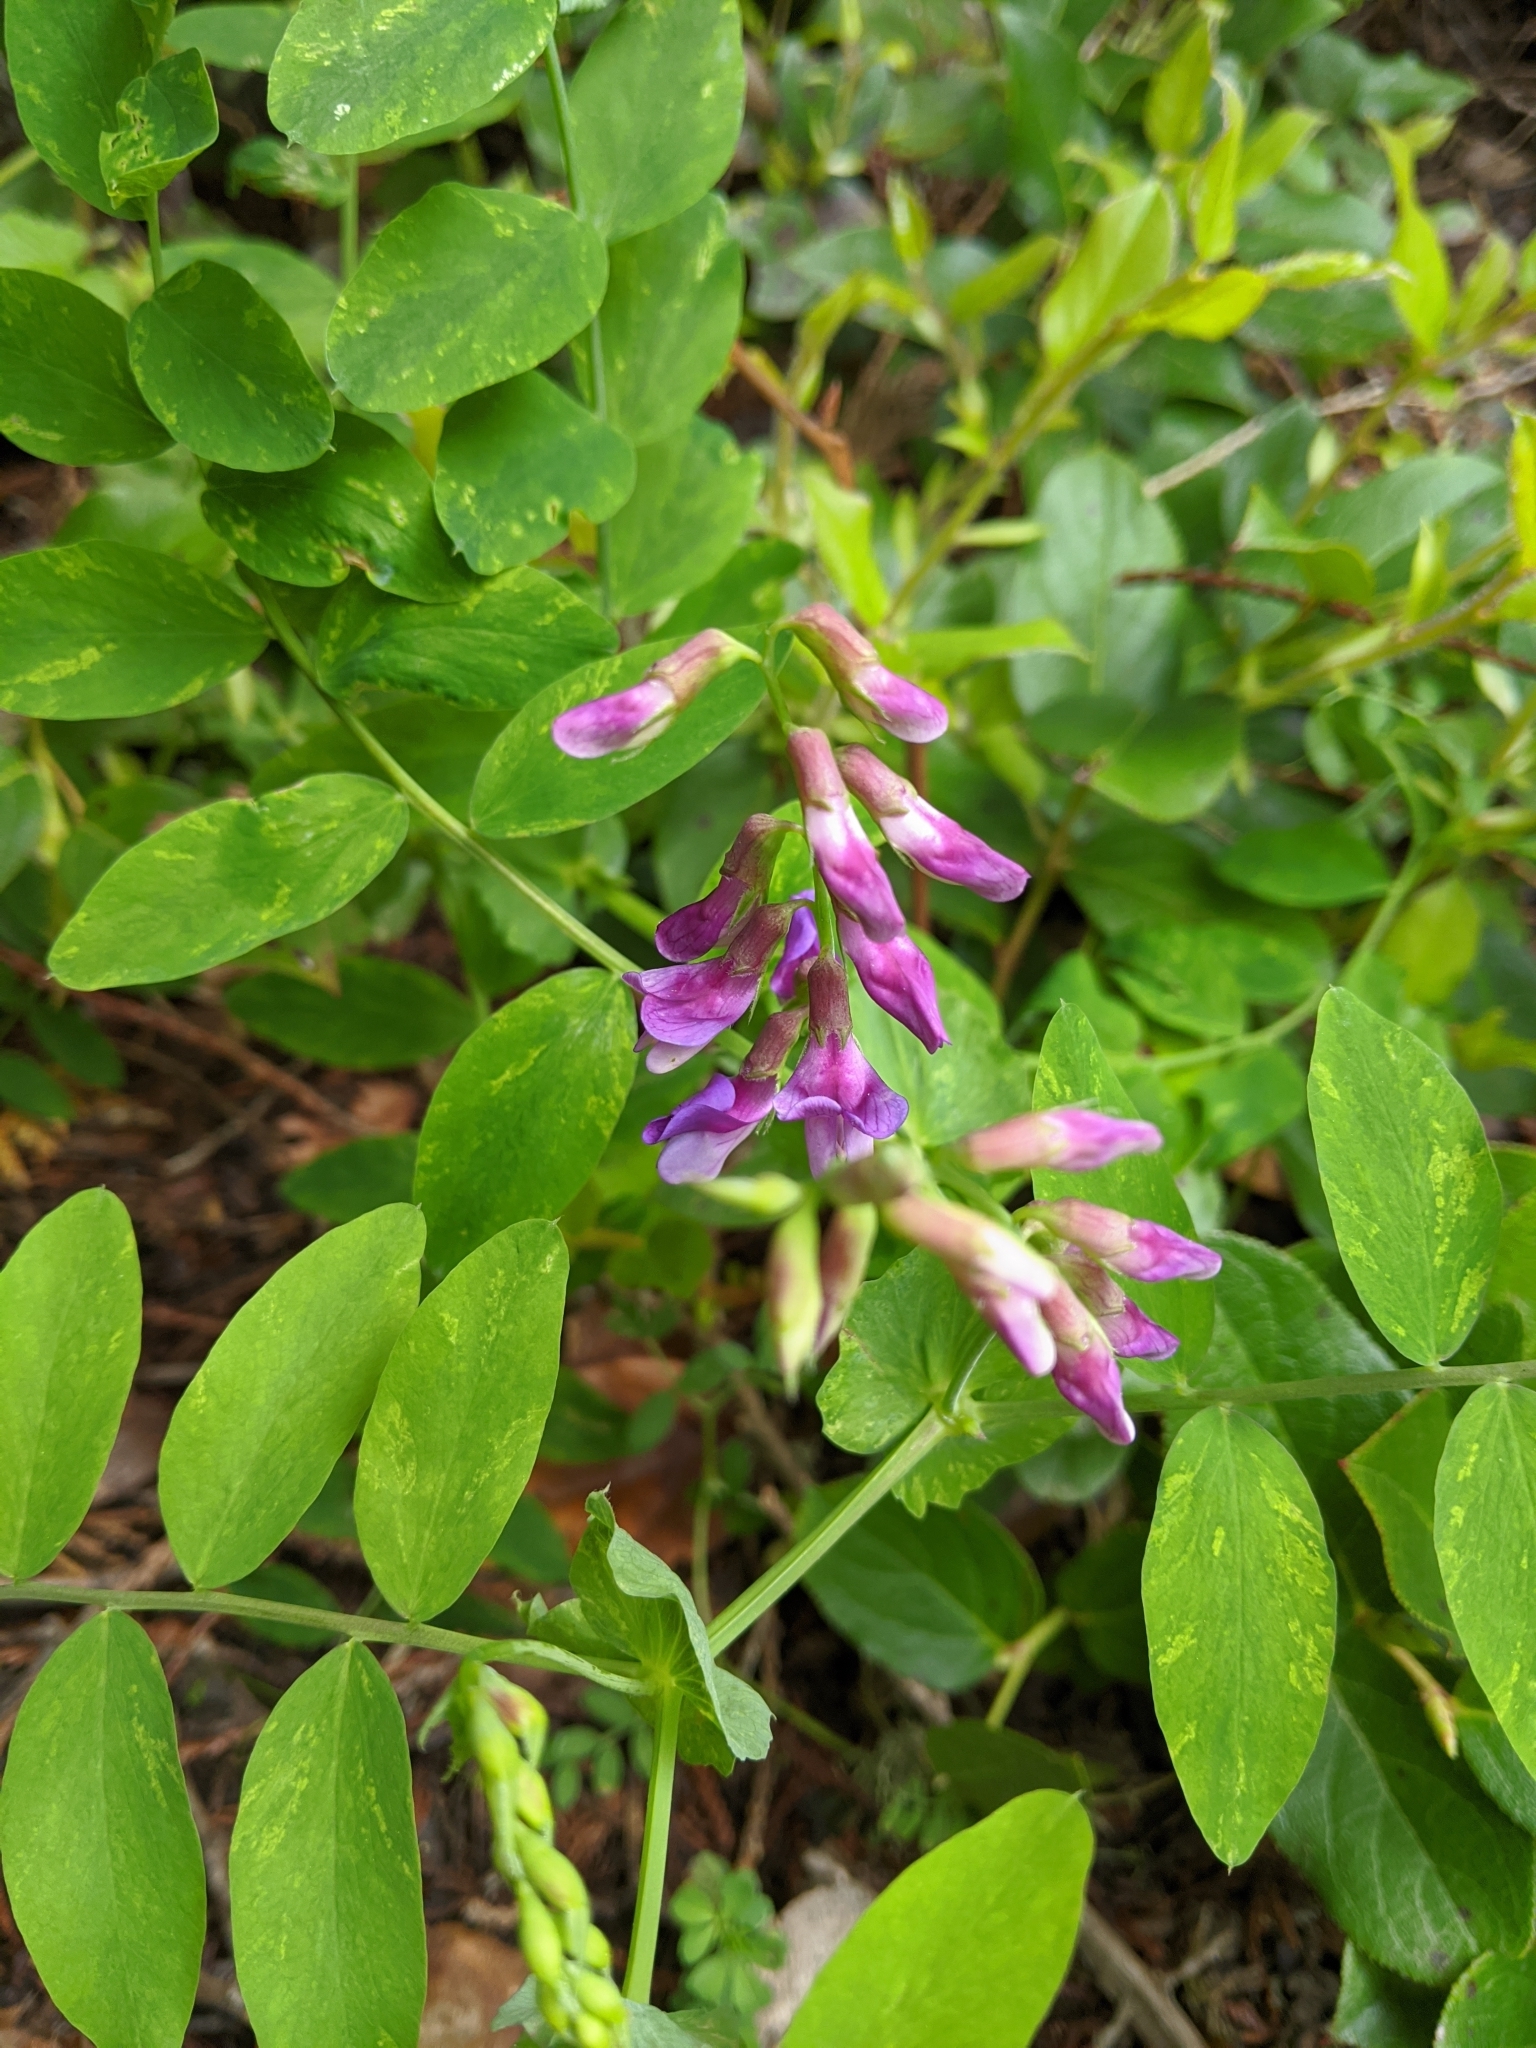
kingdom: Plantae
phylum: Tracheophyta
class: Magnoliopsida
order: Fabales
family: Fabaceae
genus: Lathyrus
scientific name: Lathyrus polyphyllus
